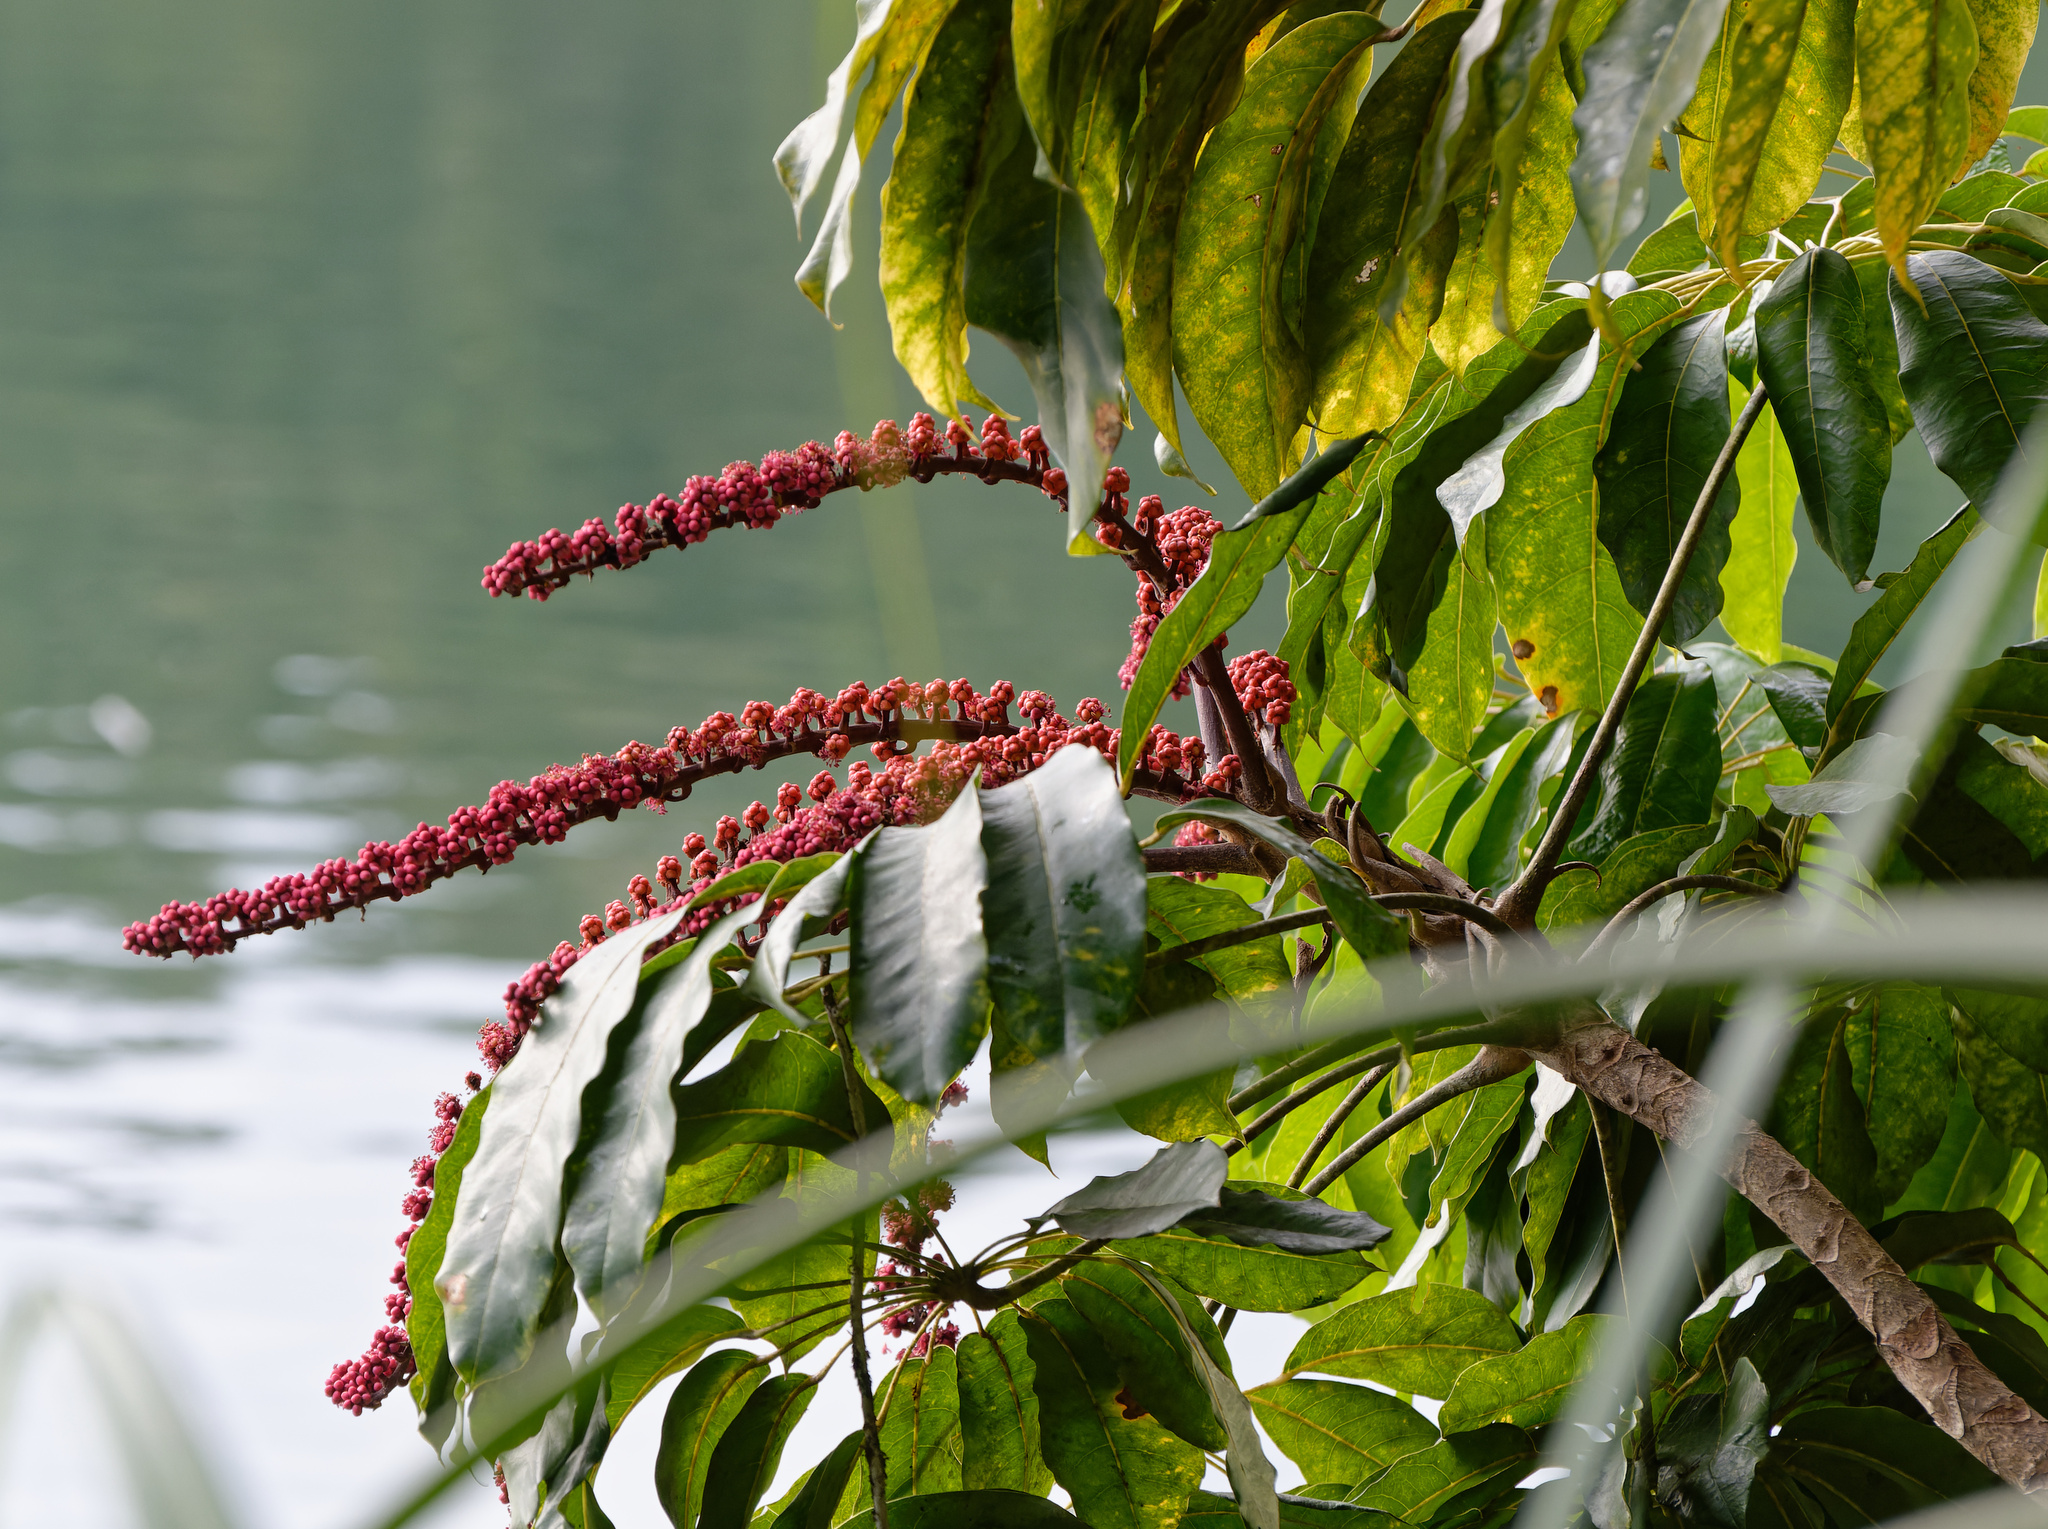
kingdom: Plantae
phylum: Tracheophyta
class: Magnoliopsida
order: Apiales
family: Araliaceae
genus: Heptapleurum
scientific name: Heptapleurum actinophyllum
